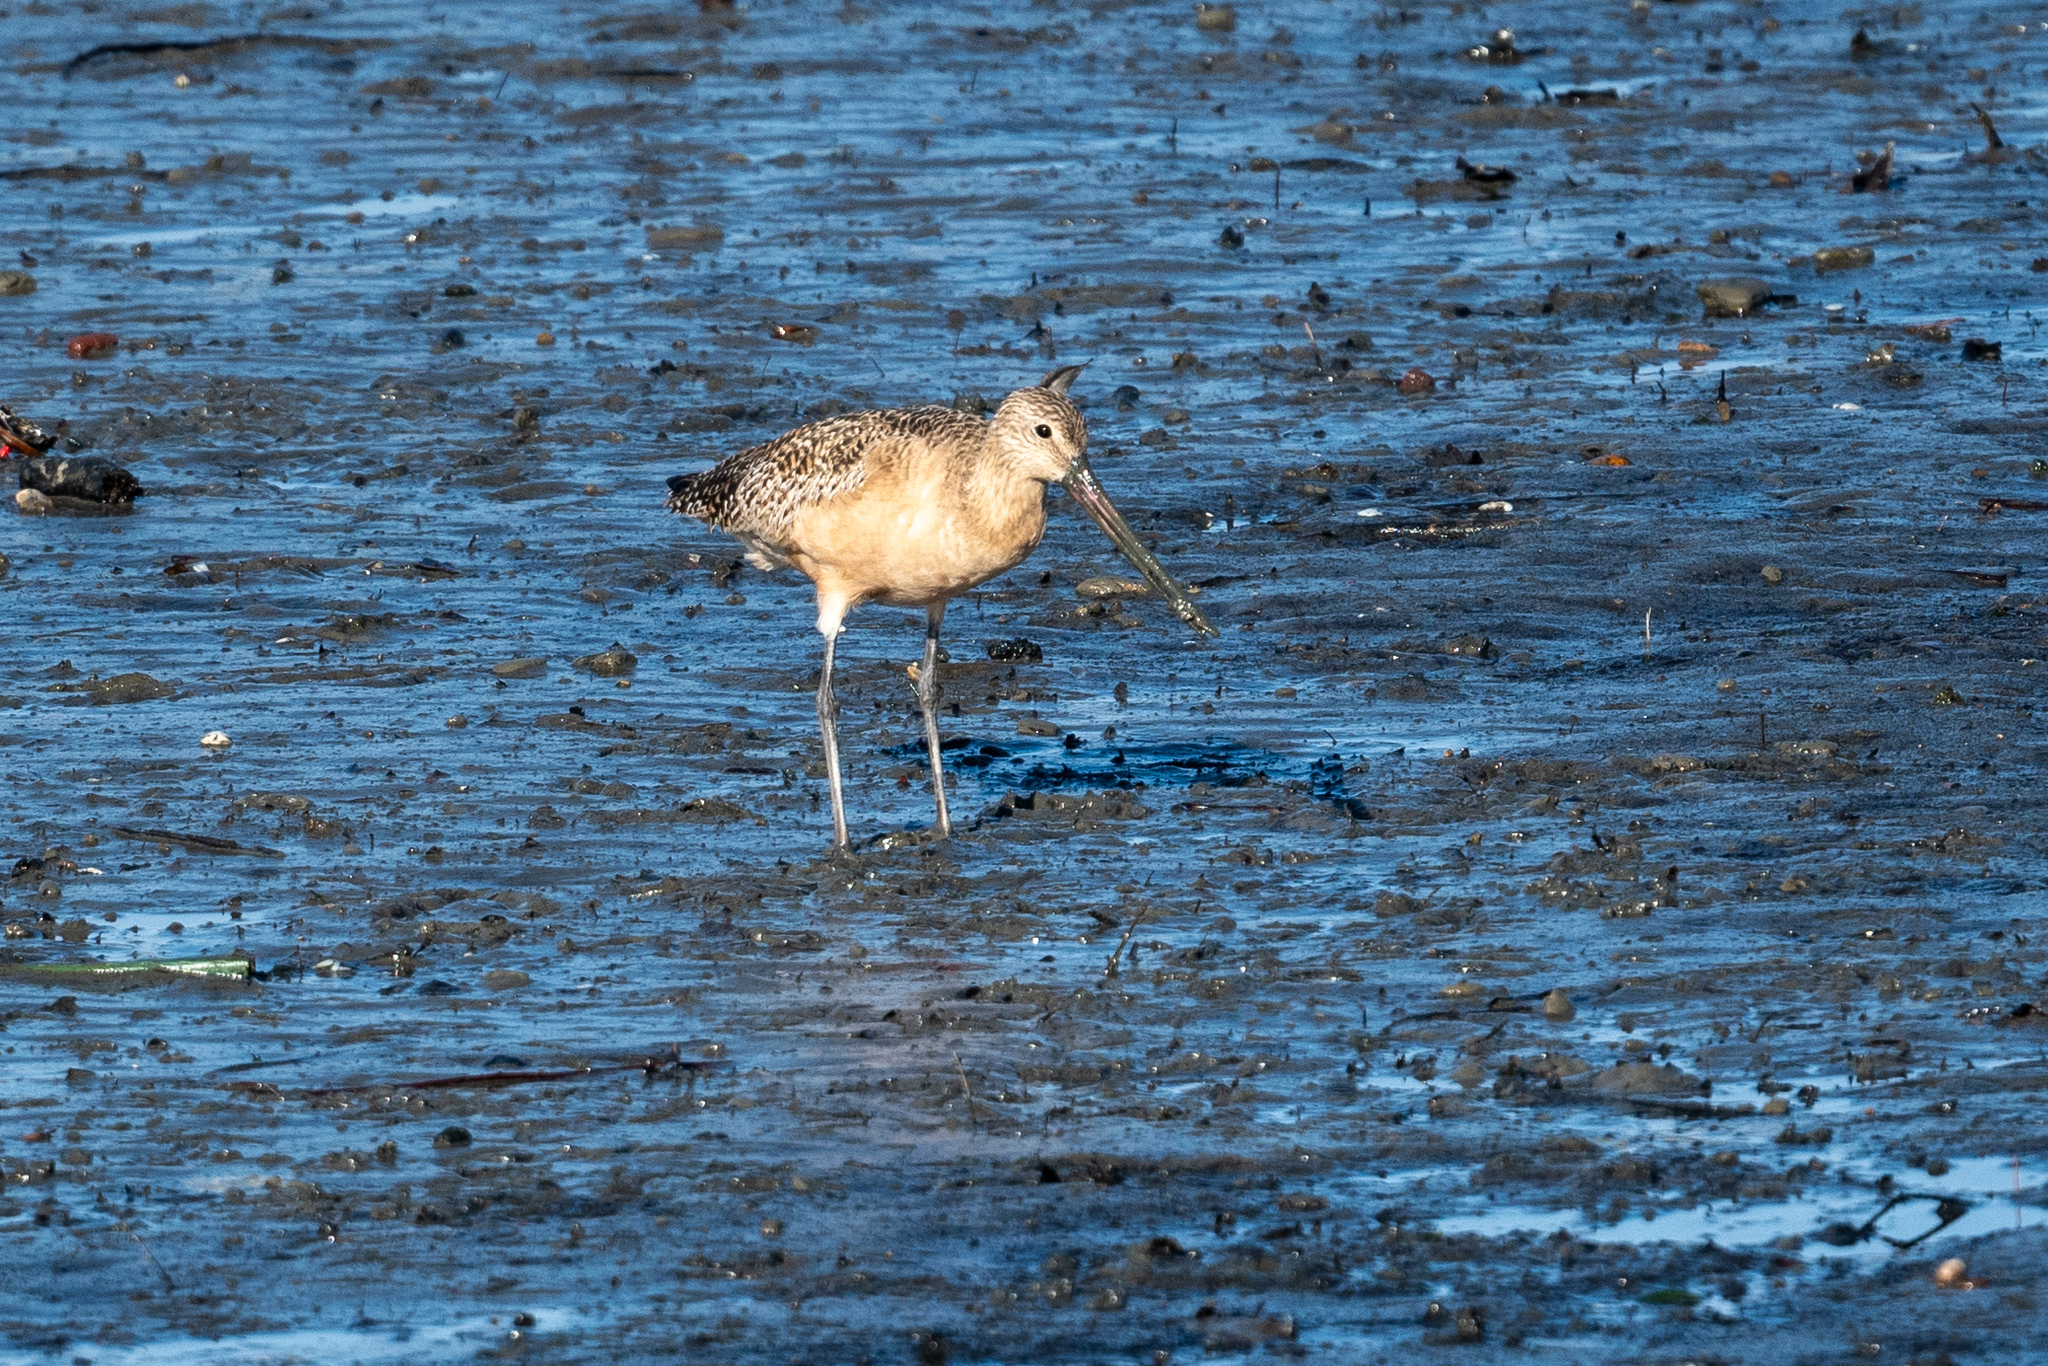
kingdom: Animalia
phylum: Chordata
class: Aves
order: Charadriiformes
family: Scolopacidae
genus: Limosa
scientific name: Limosa fedoa
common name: Marbled godwit
